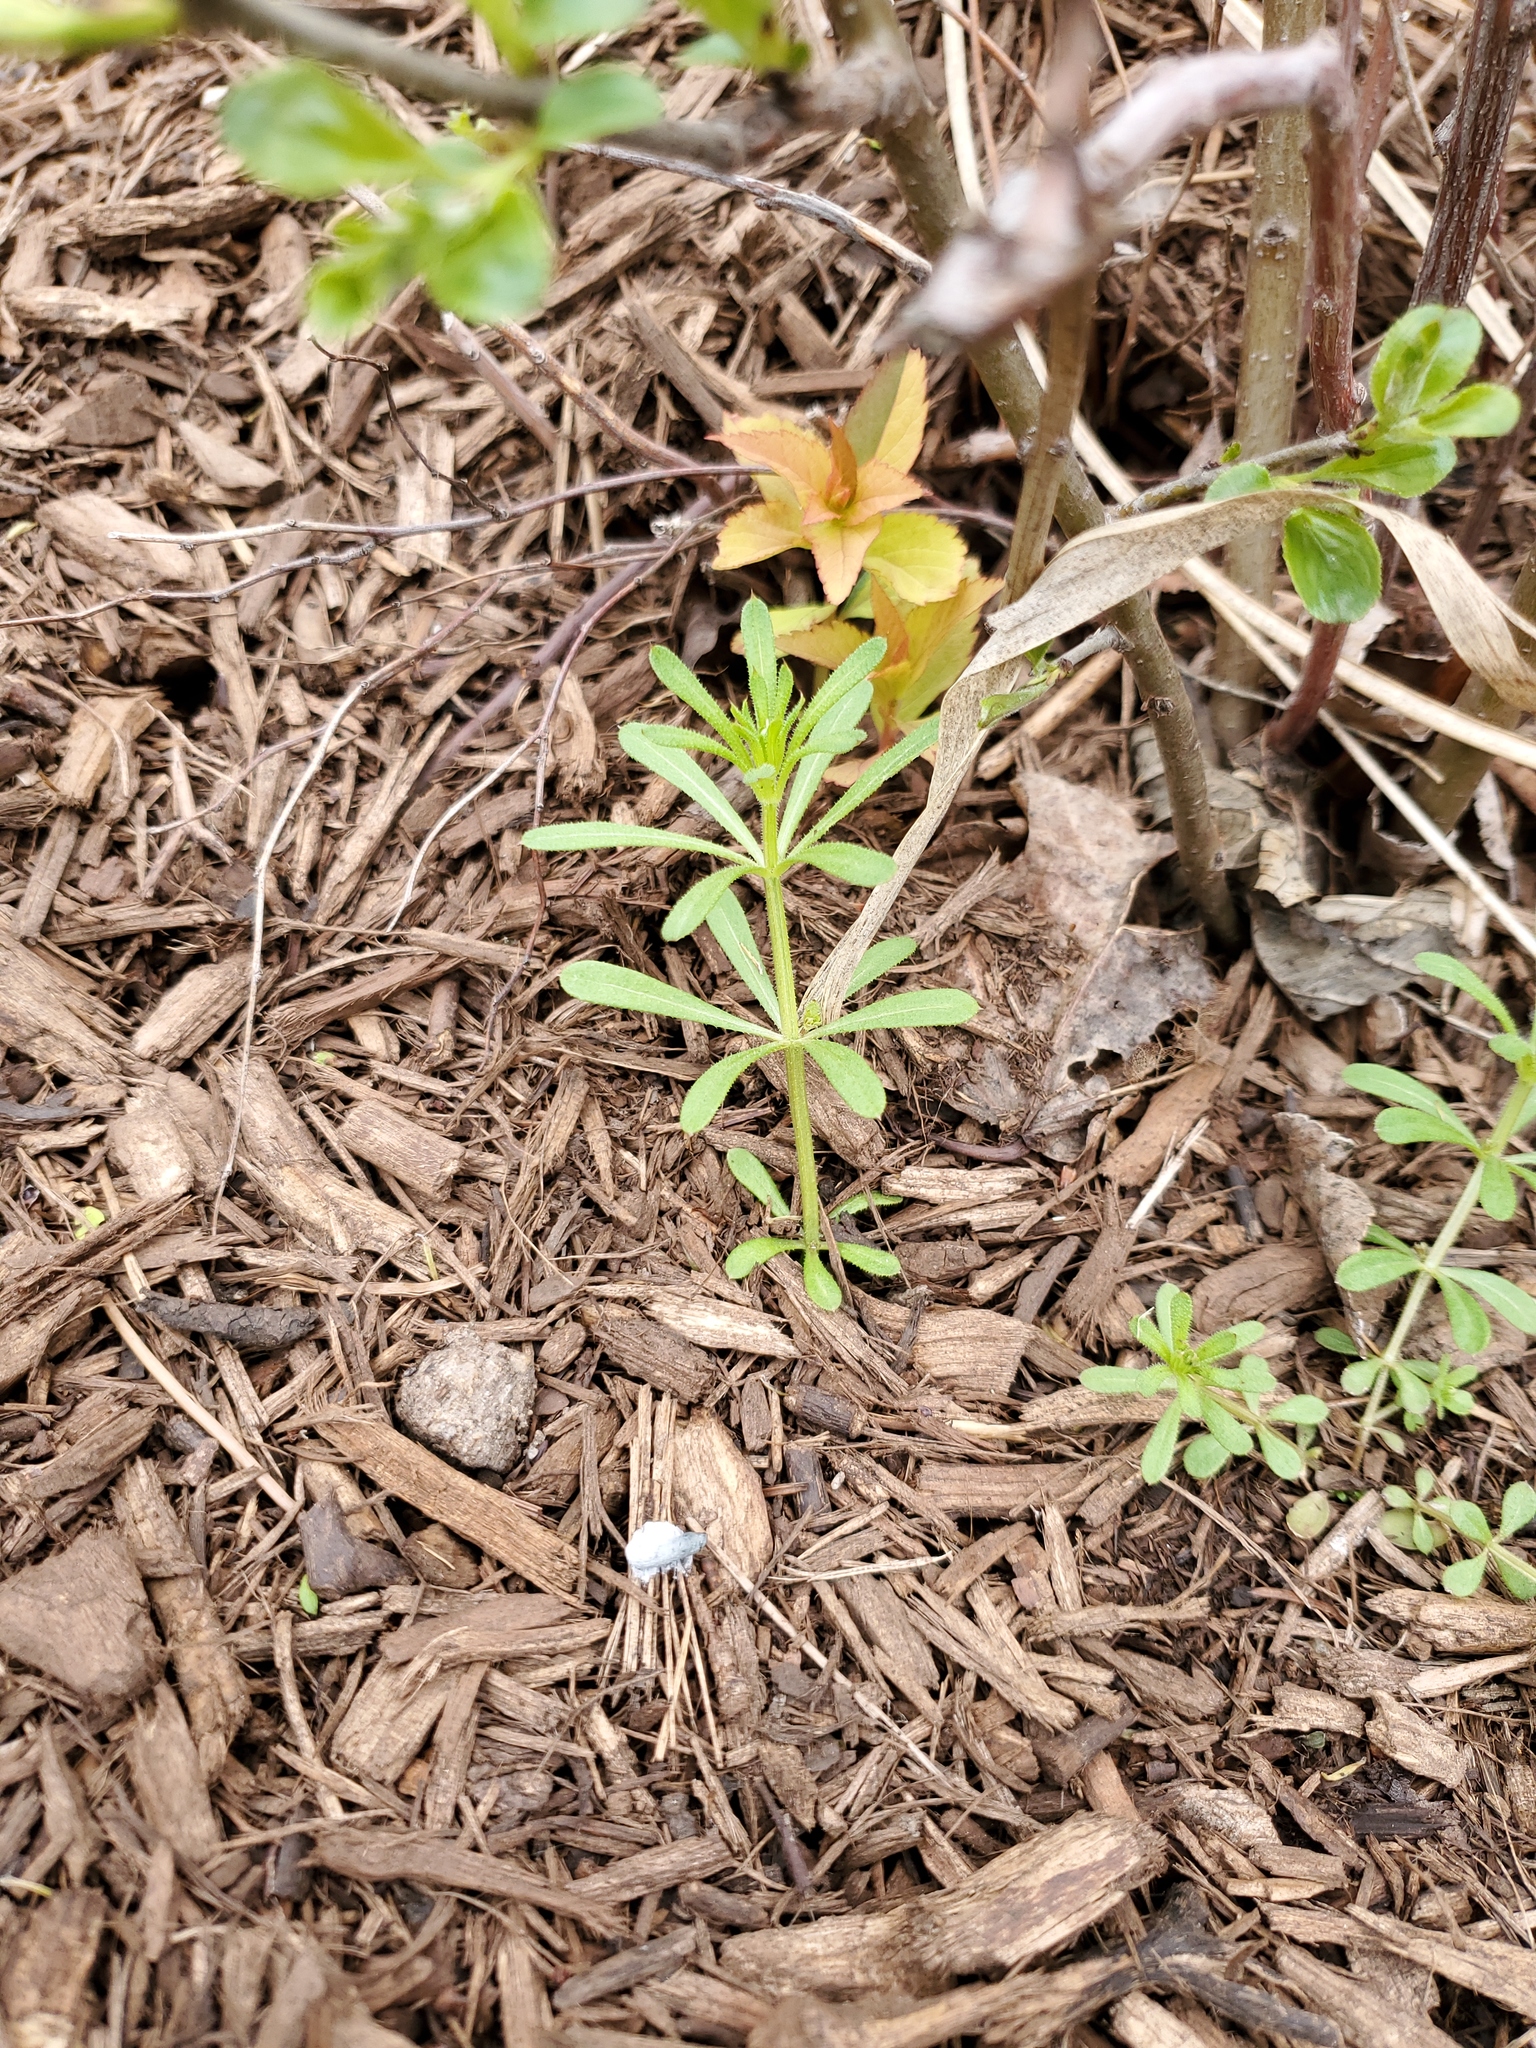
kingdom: Plantae
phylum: Tracheophyta
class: Magnoliopsida
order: Gentianales
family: Rubiaceae
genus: Galium
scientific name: Galium aparine
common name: Cleavers
